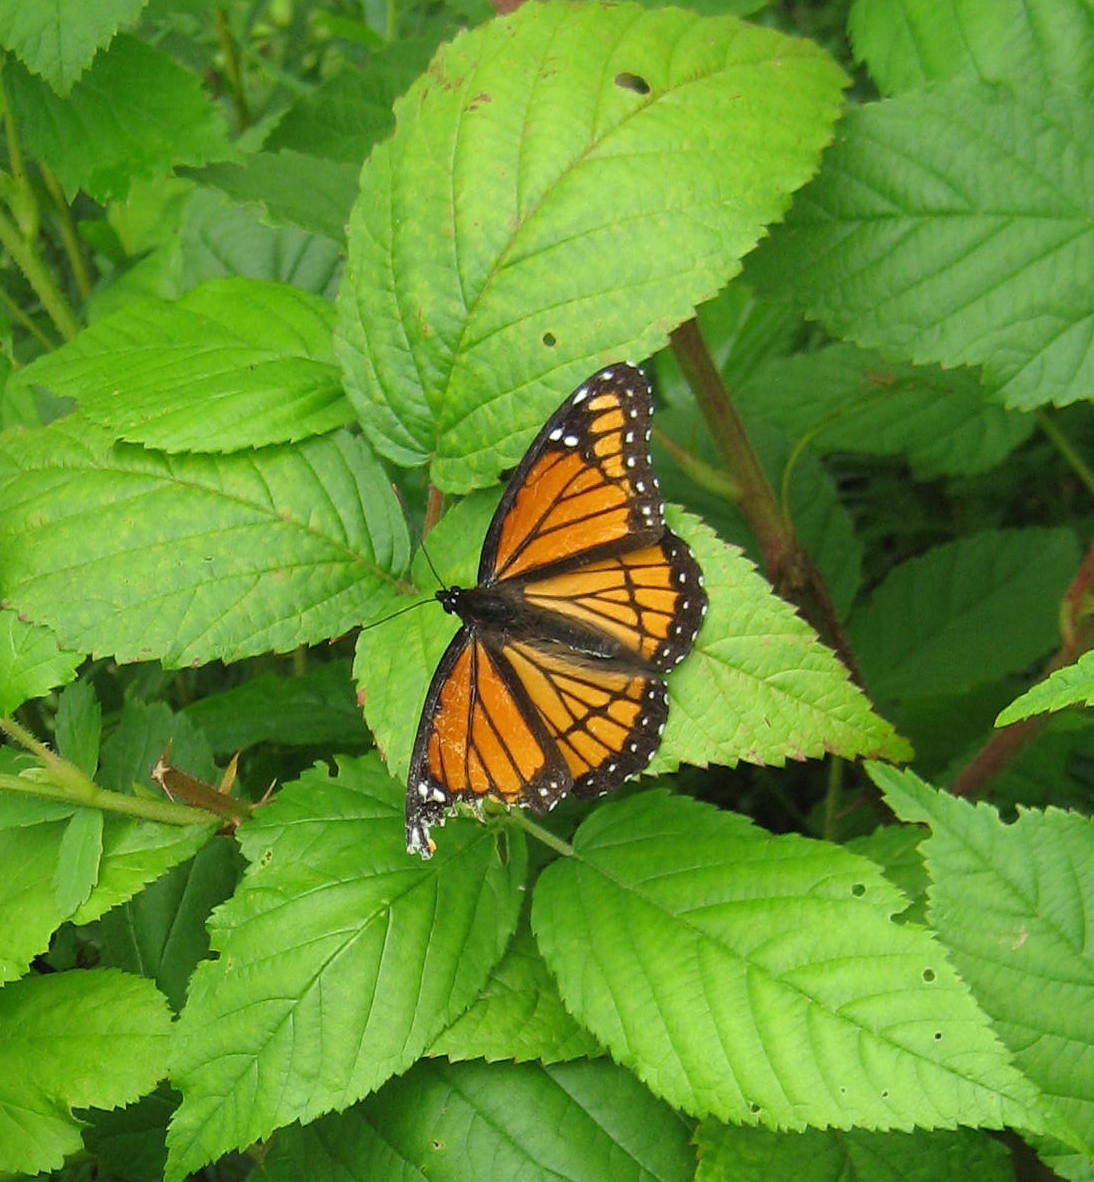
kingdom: Animalia
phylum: Arthropoda
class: Insecta
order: Lepidoptera
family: Nymphalidae
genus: Limenitis
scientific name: Limenitis archippus
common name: Viceroy
